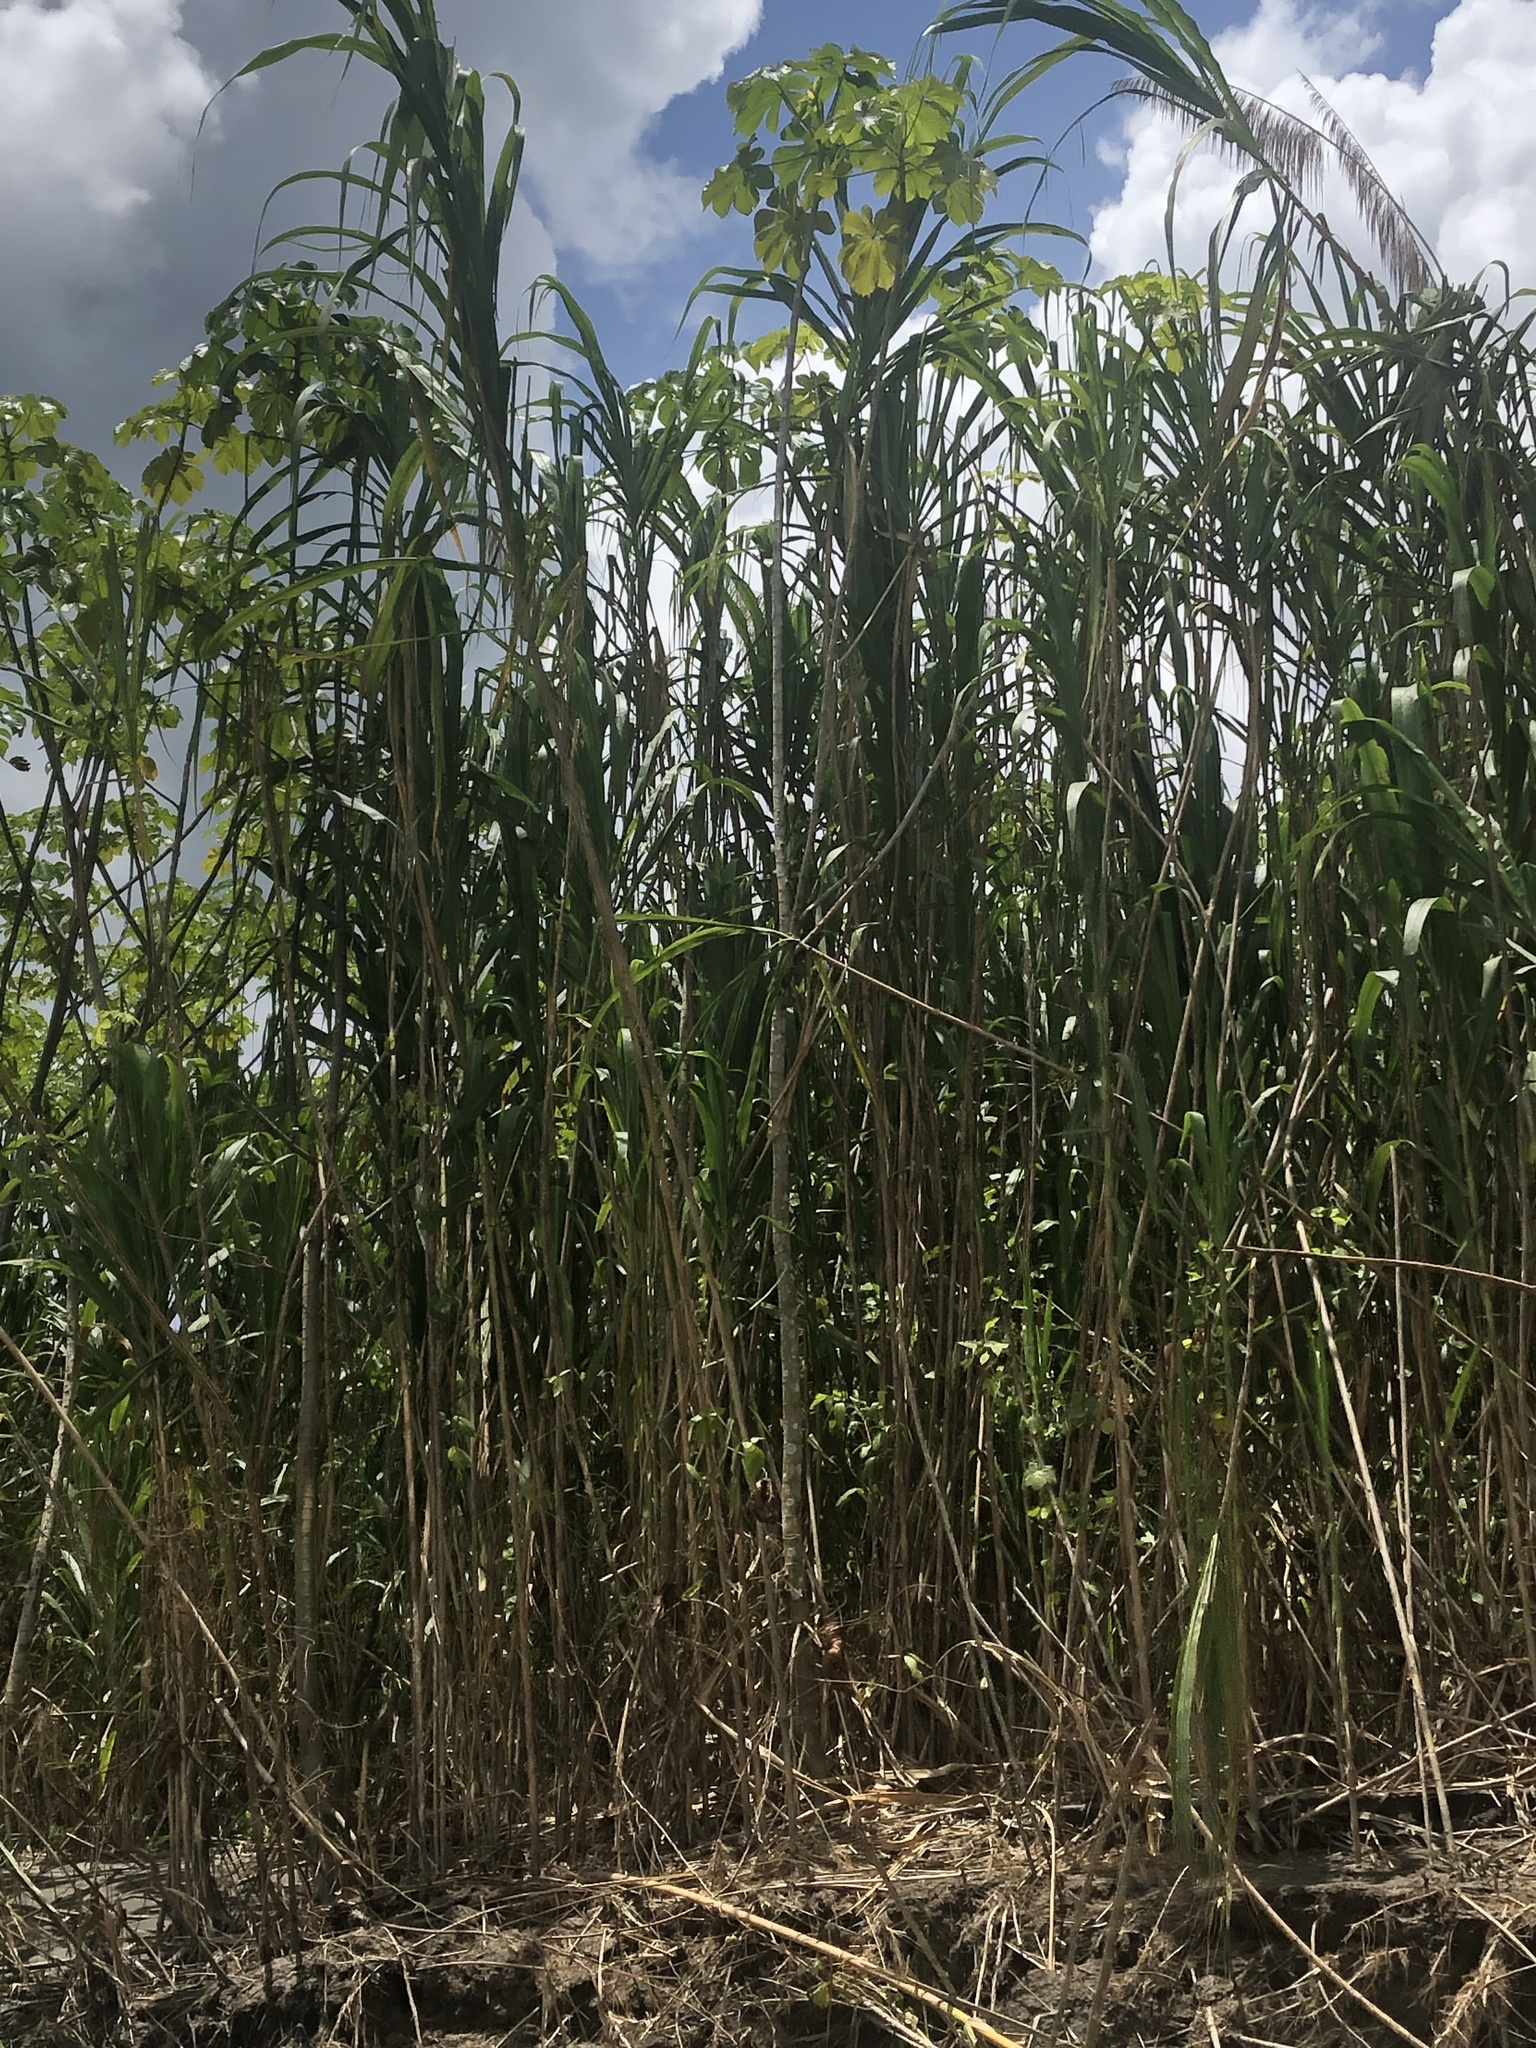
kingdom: Plantae
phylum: Tracheophyta
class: Liliopsida
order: Poales
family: Poaceae
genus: Gynerium
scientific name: Gynerium sagittatum
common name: Wild cane
